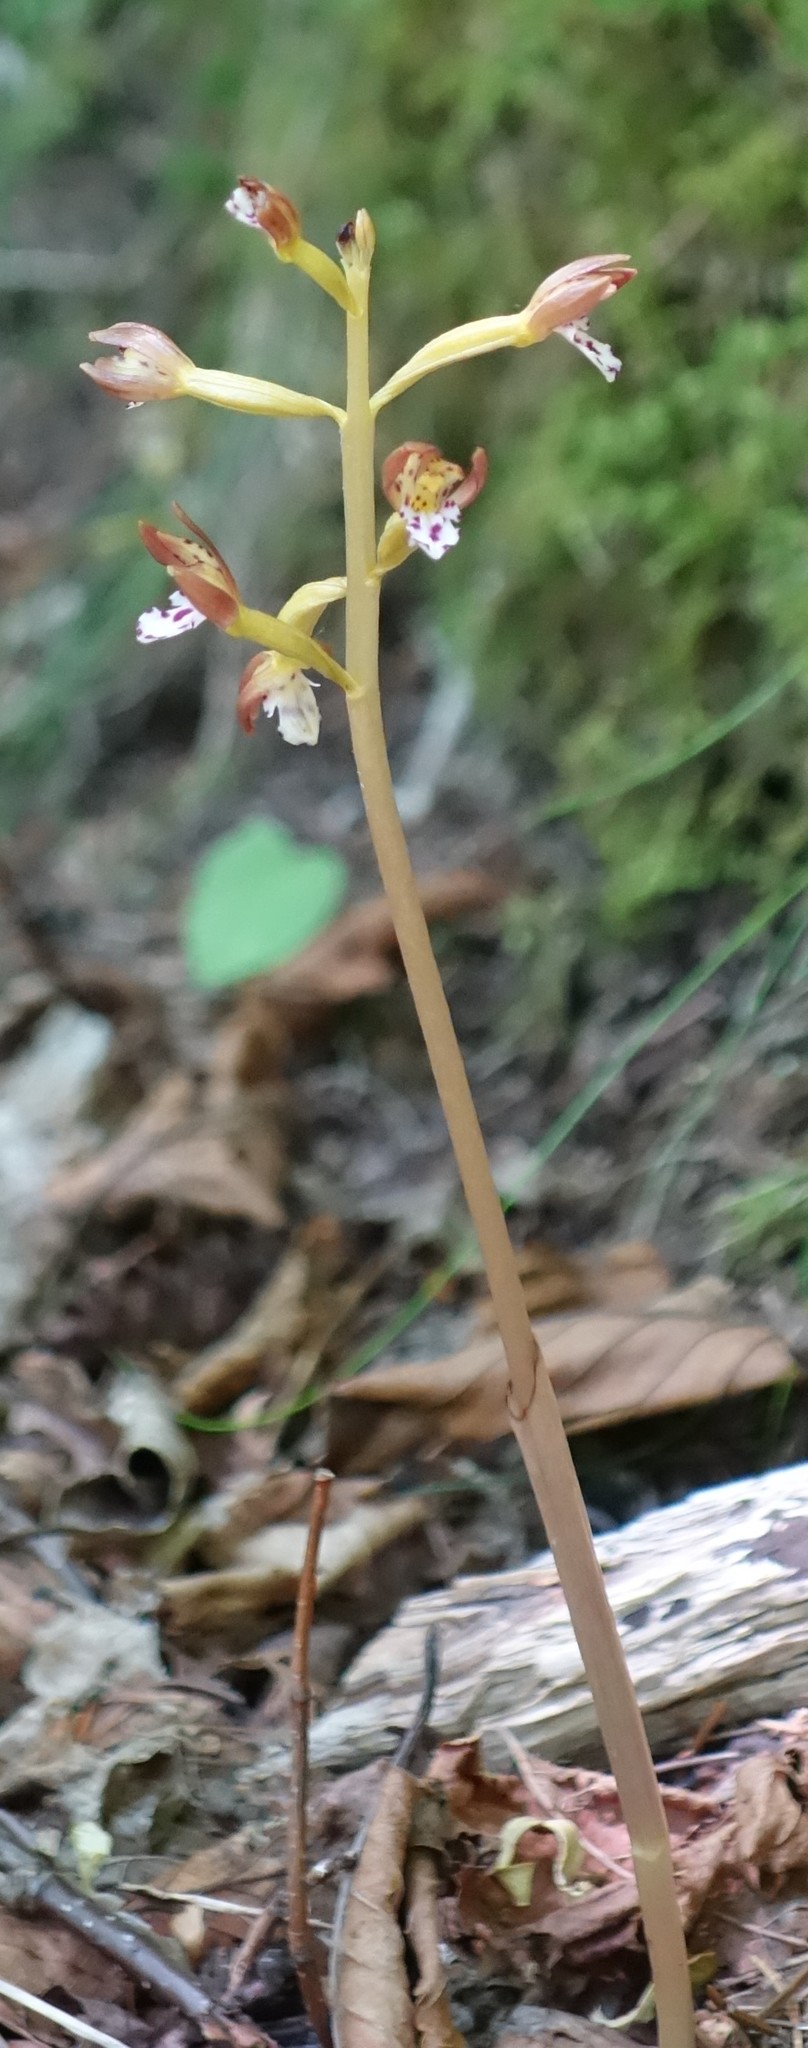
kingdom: Plantae
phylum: Tracheophyta
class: Liliopsida
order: Asparagales
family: Orchidaceae
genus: Corallorhiza
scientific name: Corallorhiza maculata
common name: Spotted coralroot
